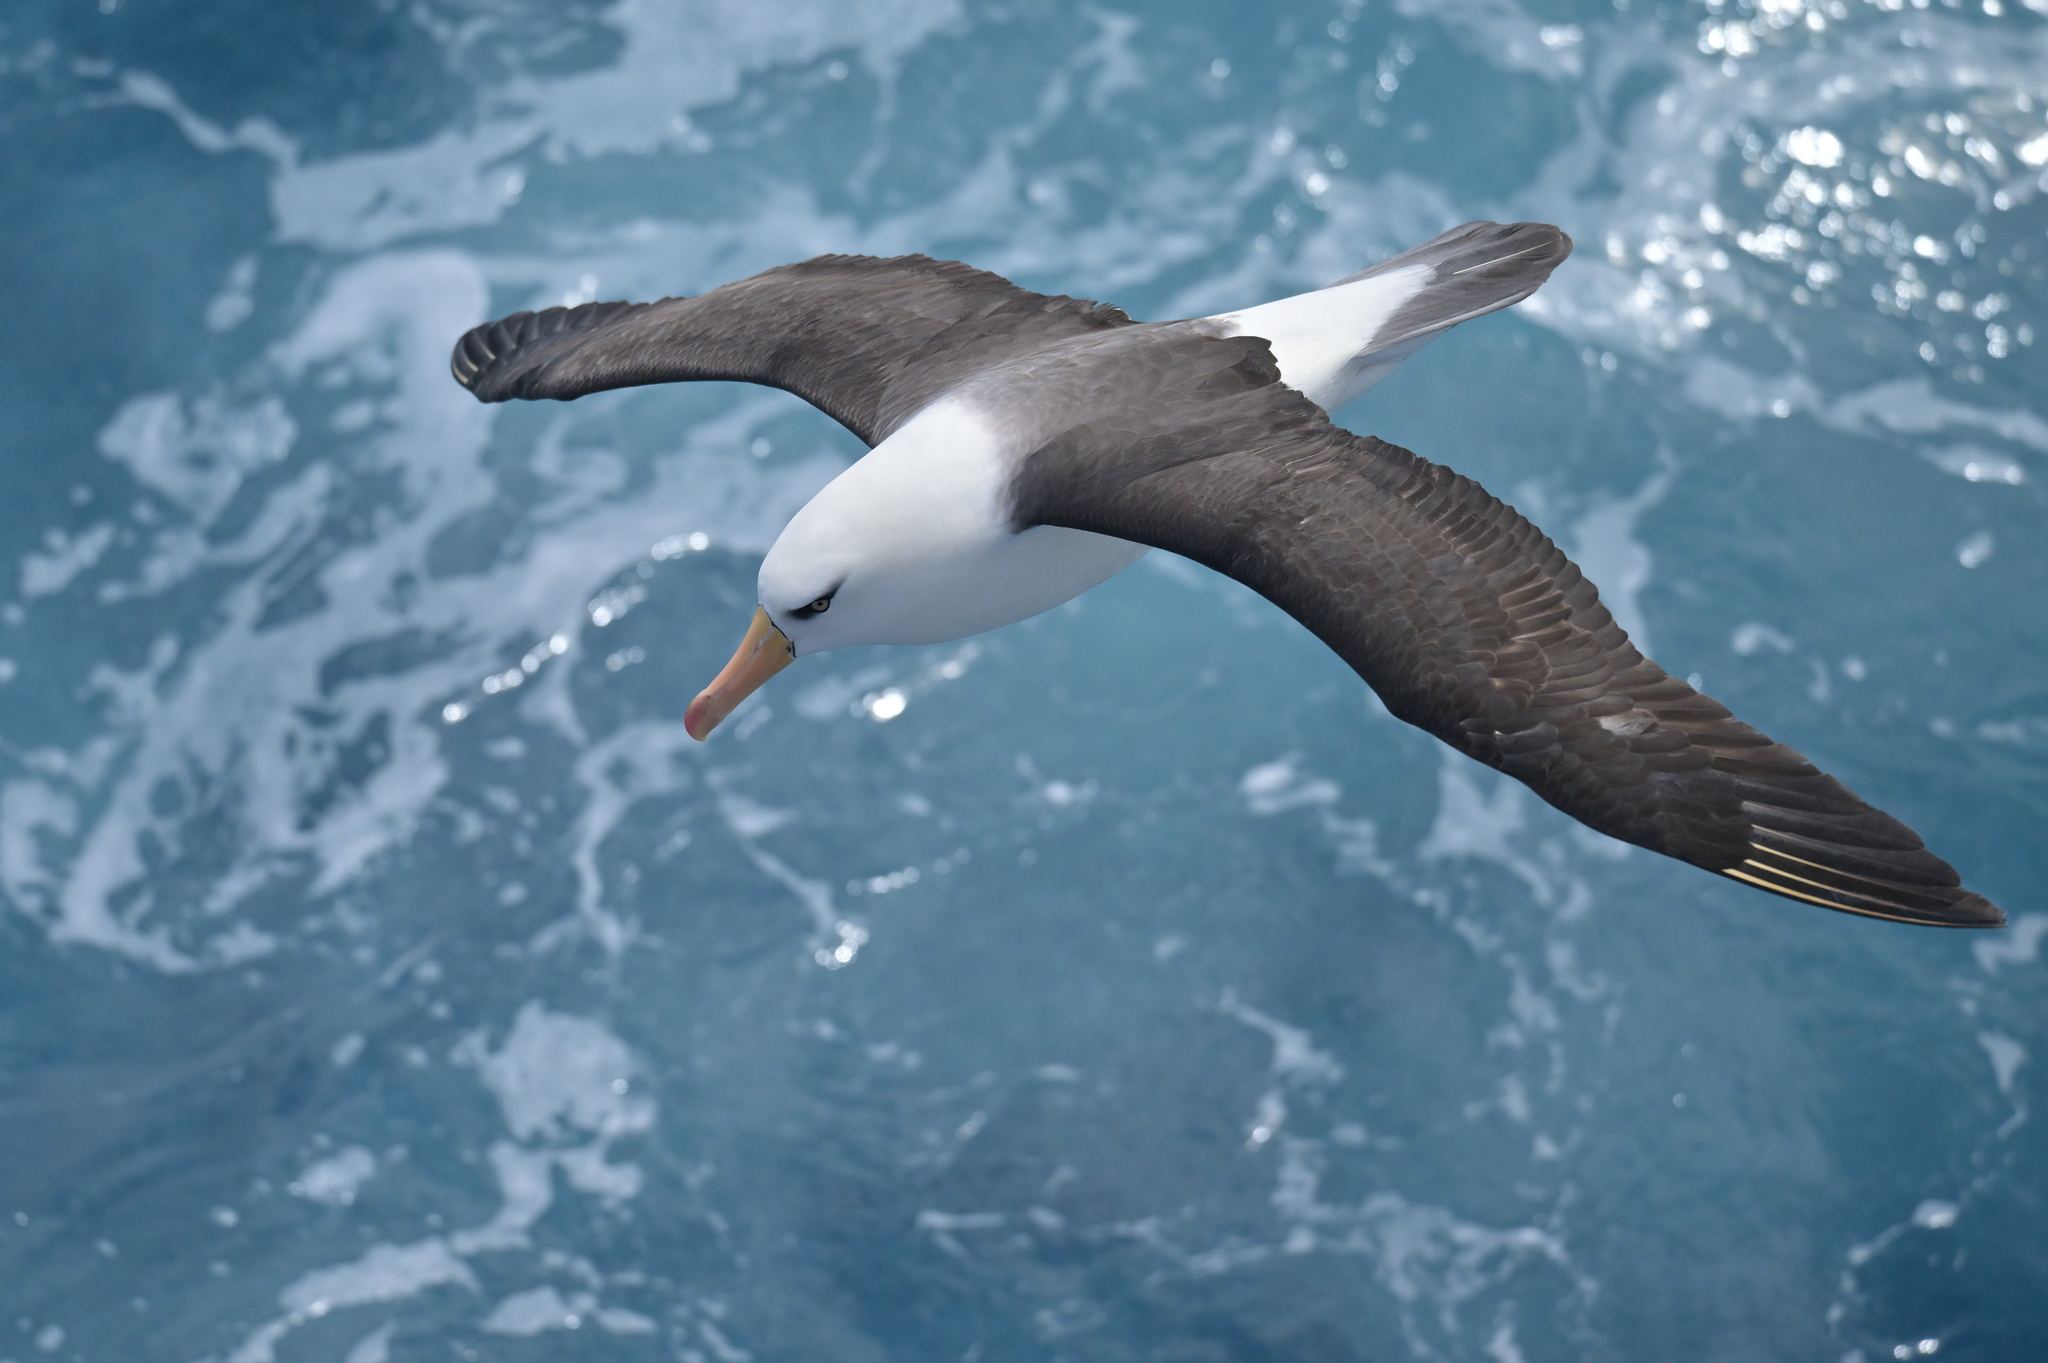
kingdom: Animalia
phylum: Chordata
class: Aves
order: Procellariiformes
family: Diomedeidae
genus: Thalassarche
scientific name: Thalassarche impavida
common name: Campbell albatross
